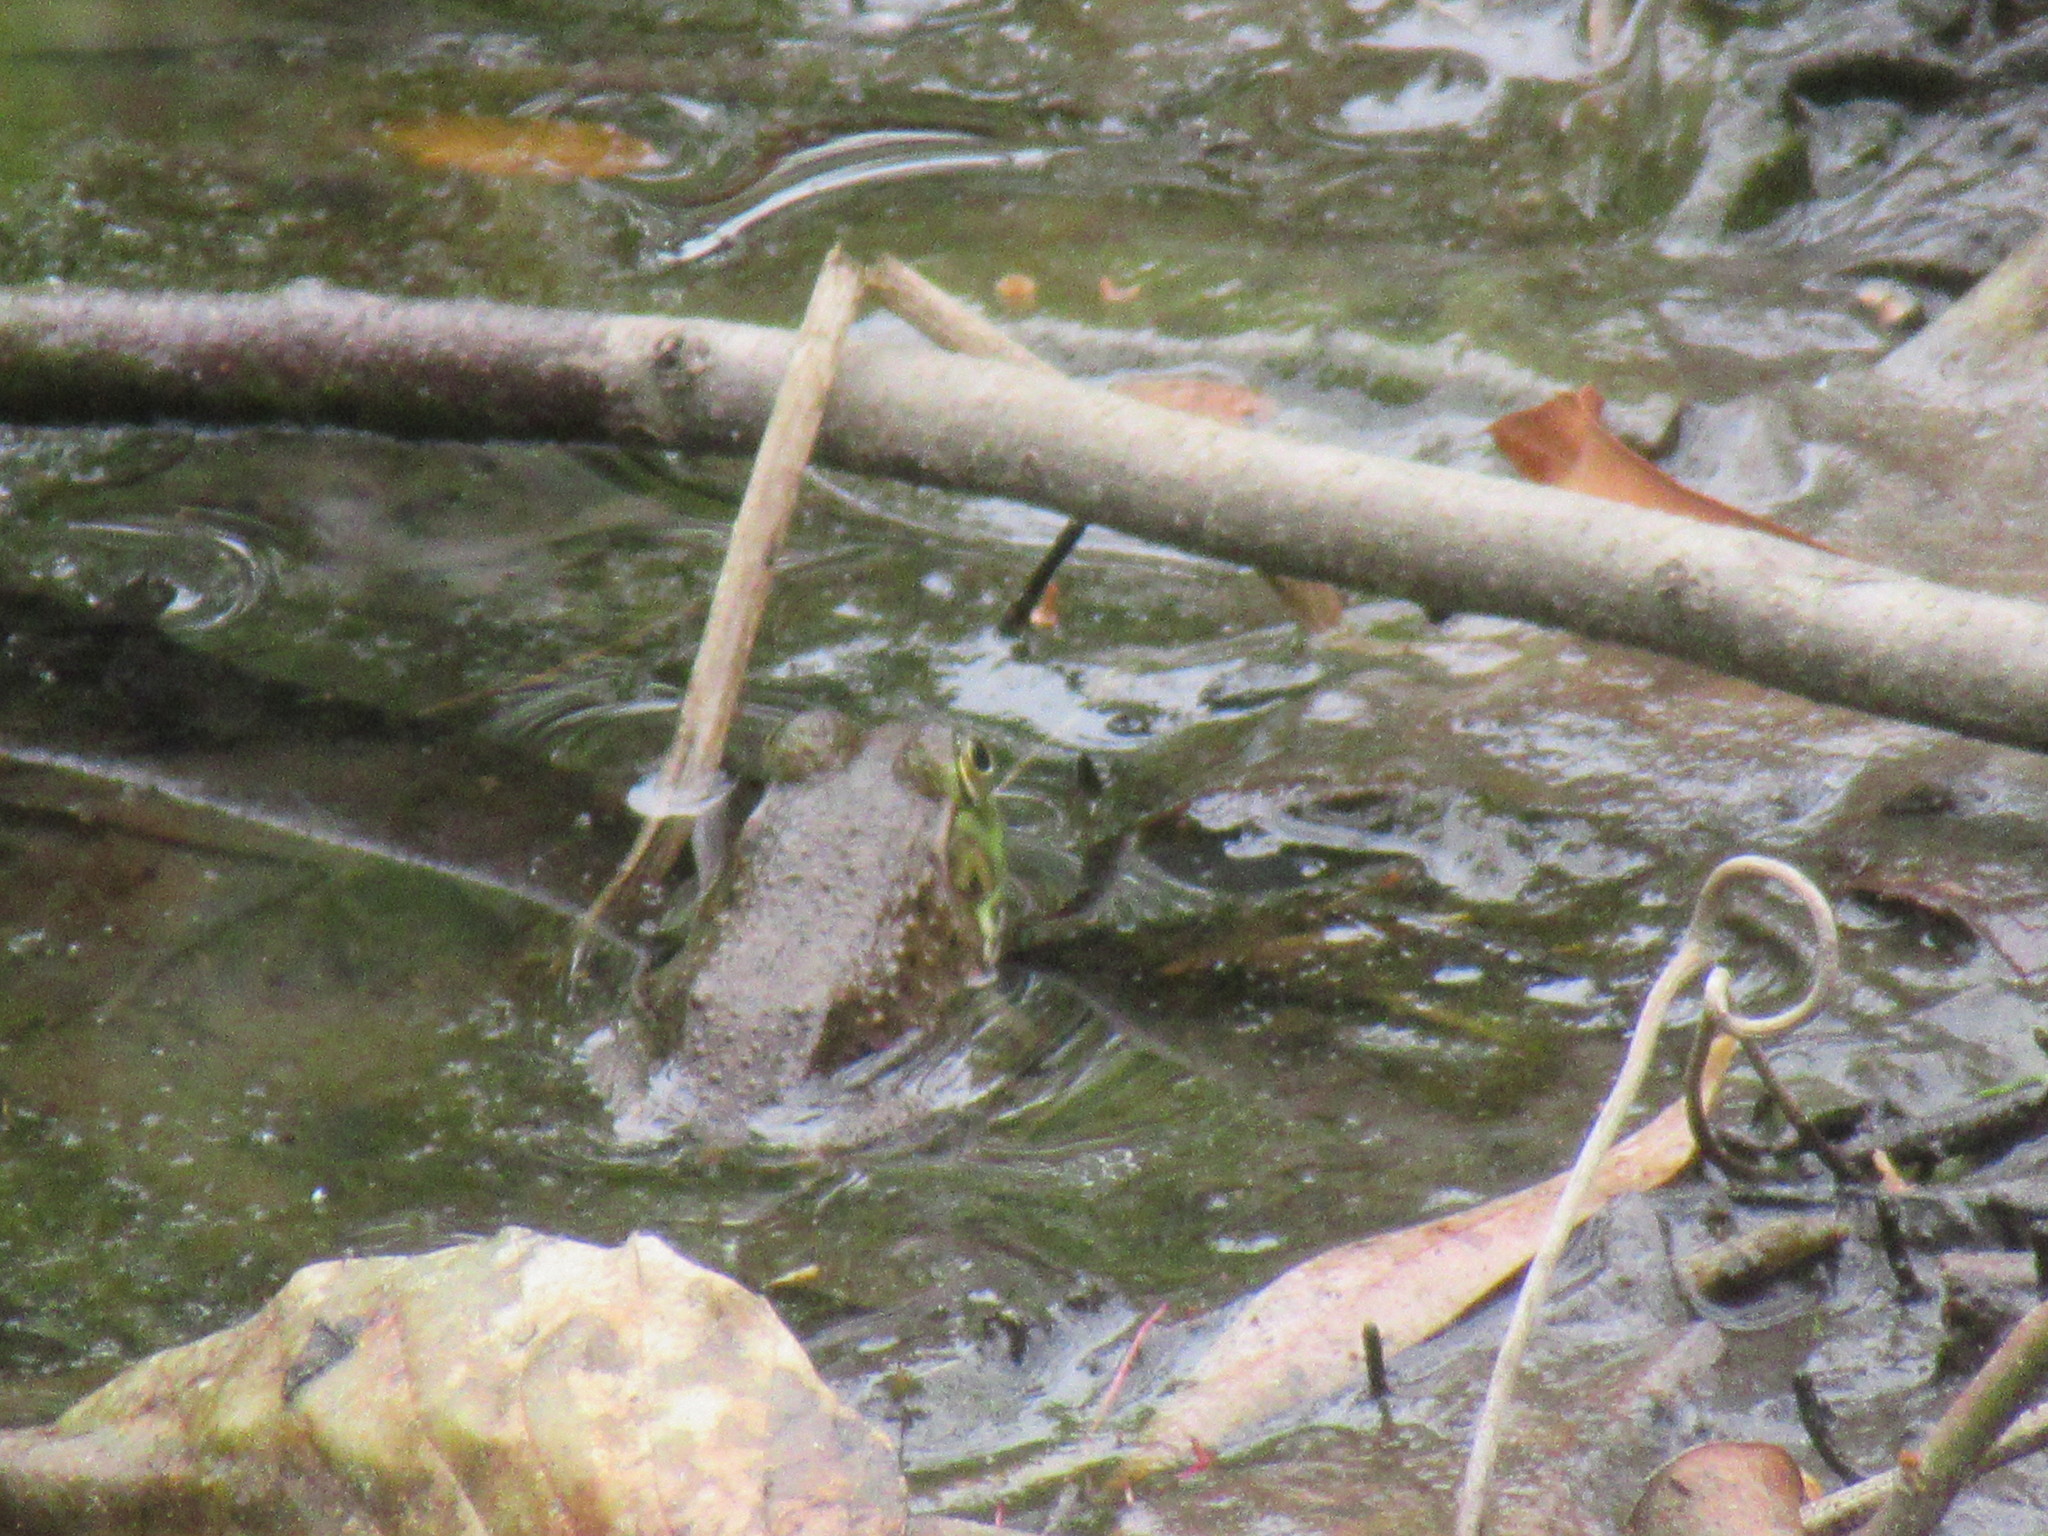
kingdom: Animalia
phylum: Chordata
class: Amphibia
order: Anura
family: Ranidae
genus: Lithobates
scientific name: Lithobates catesbeianus
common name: American bullfrog
